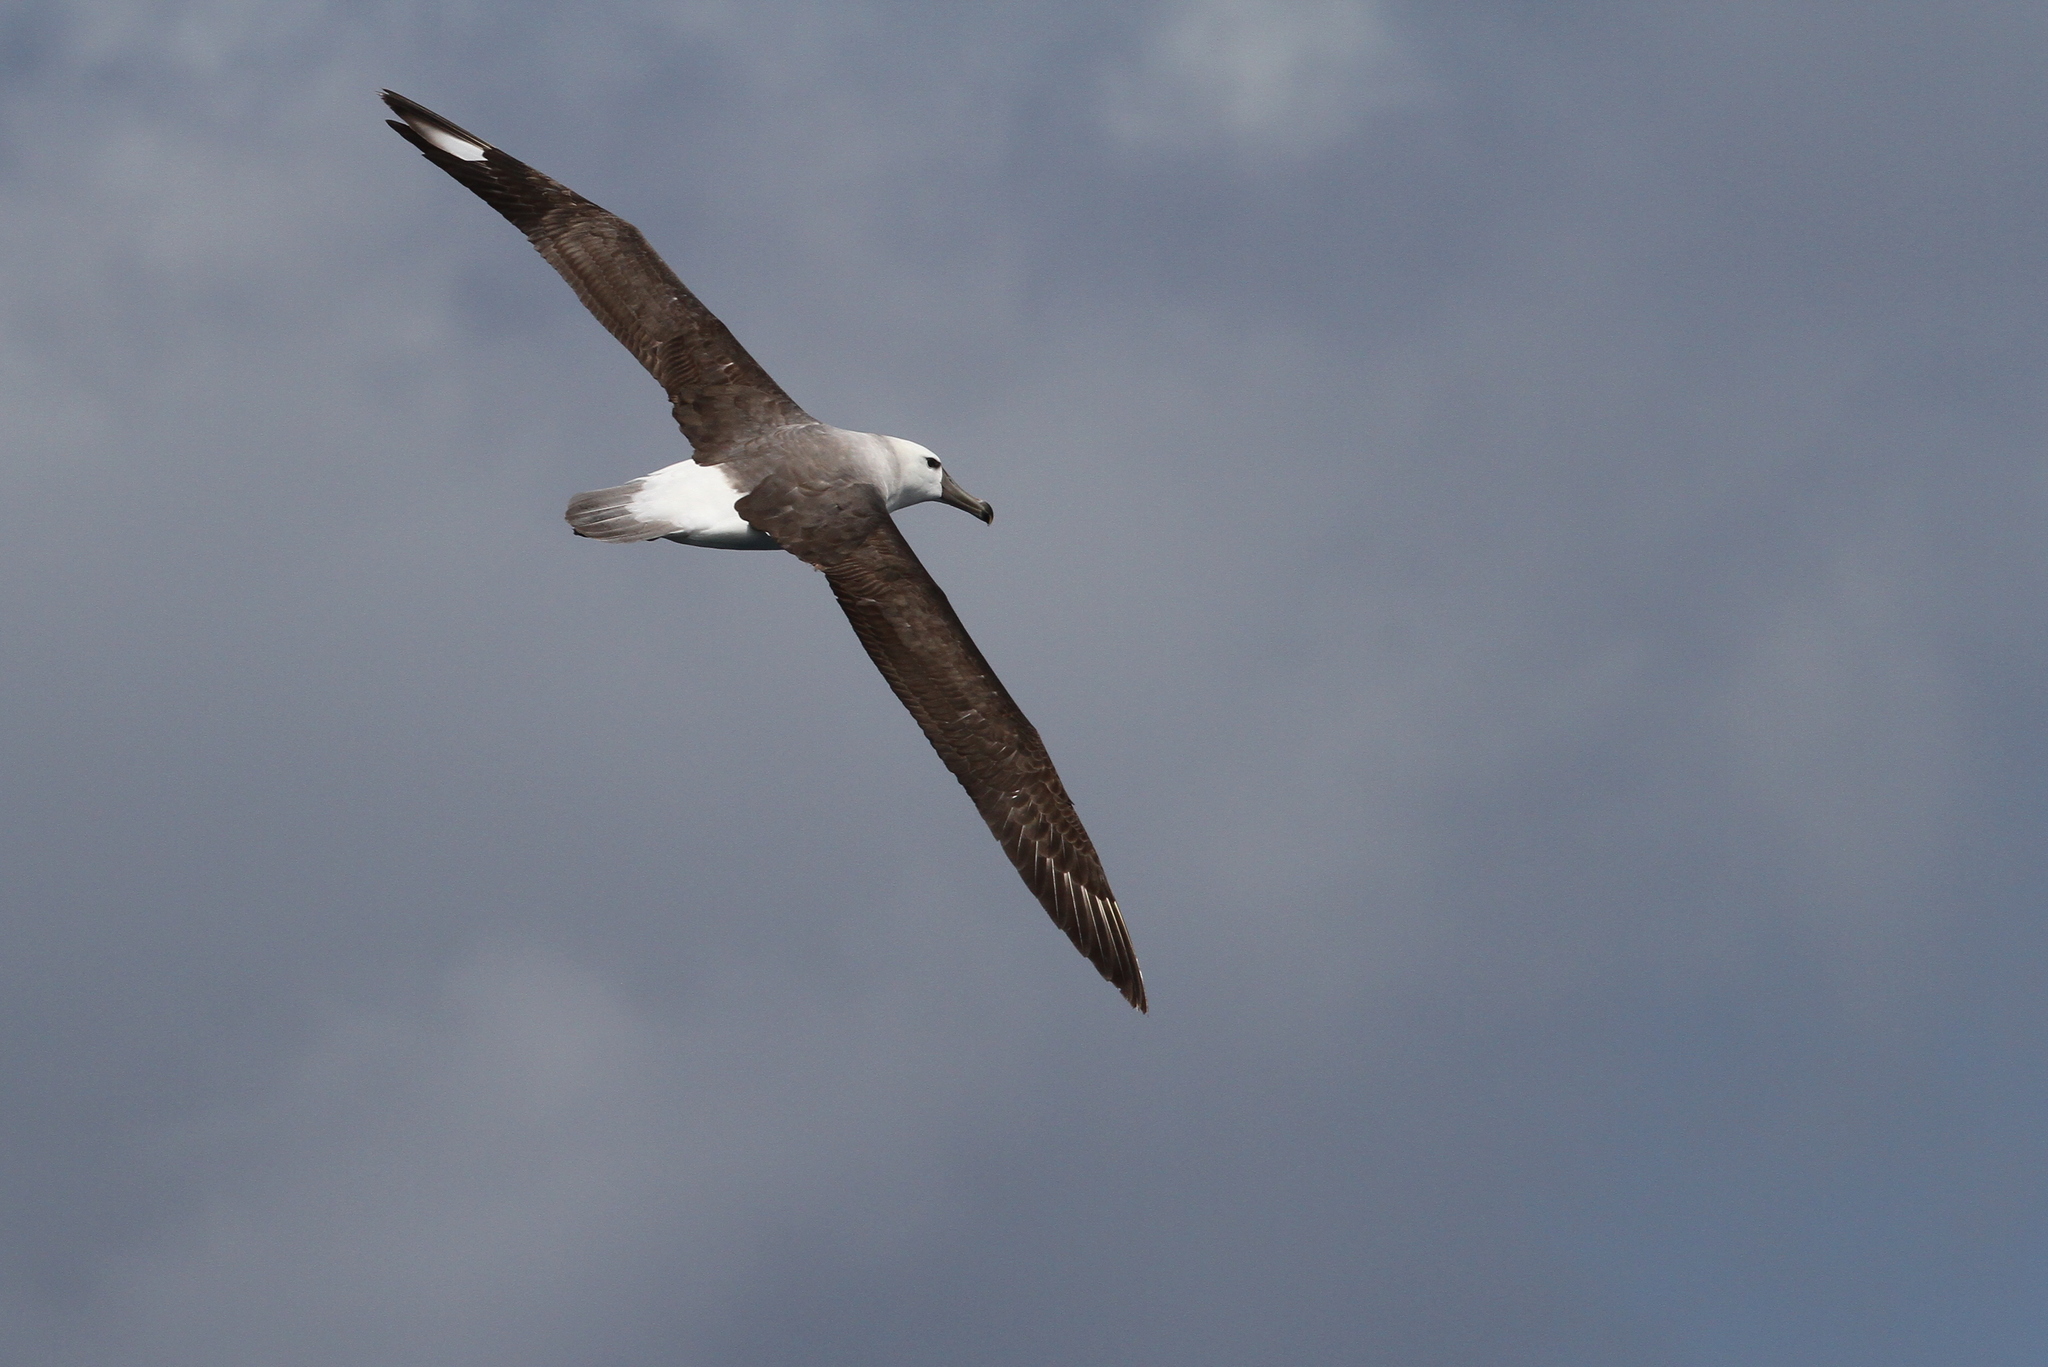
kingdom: Animalia
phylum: Chordata
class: Aves
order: Procellariiformes
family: Diomedeidae
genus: Thalassarche
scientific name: Thalassarche melanophris
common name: Black-browed albatross
